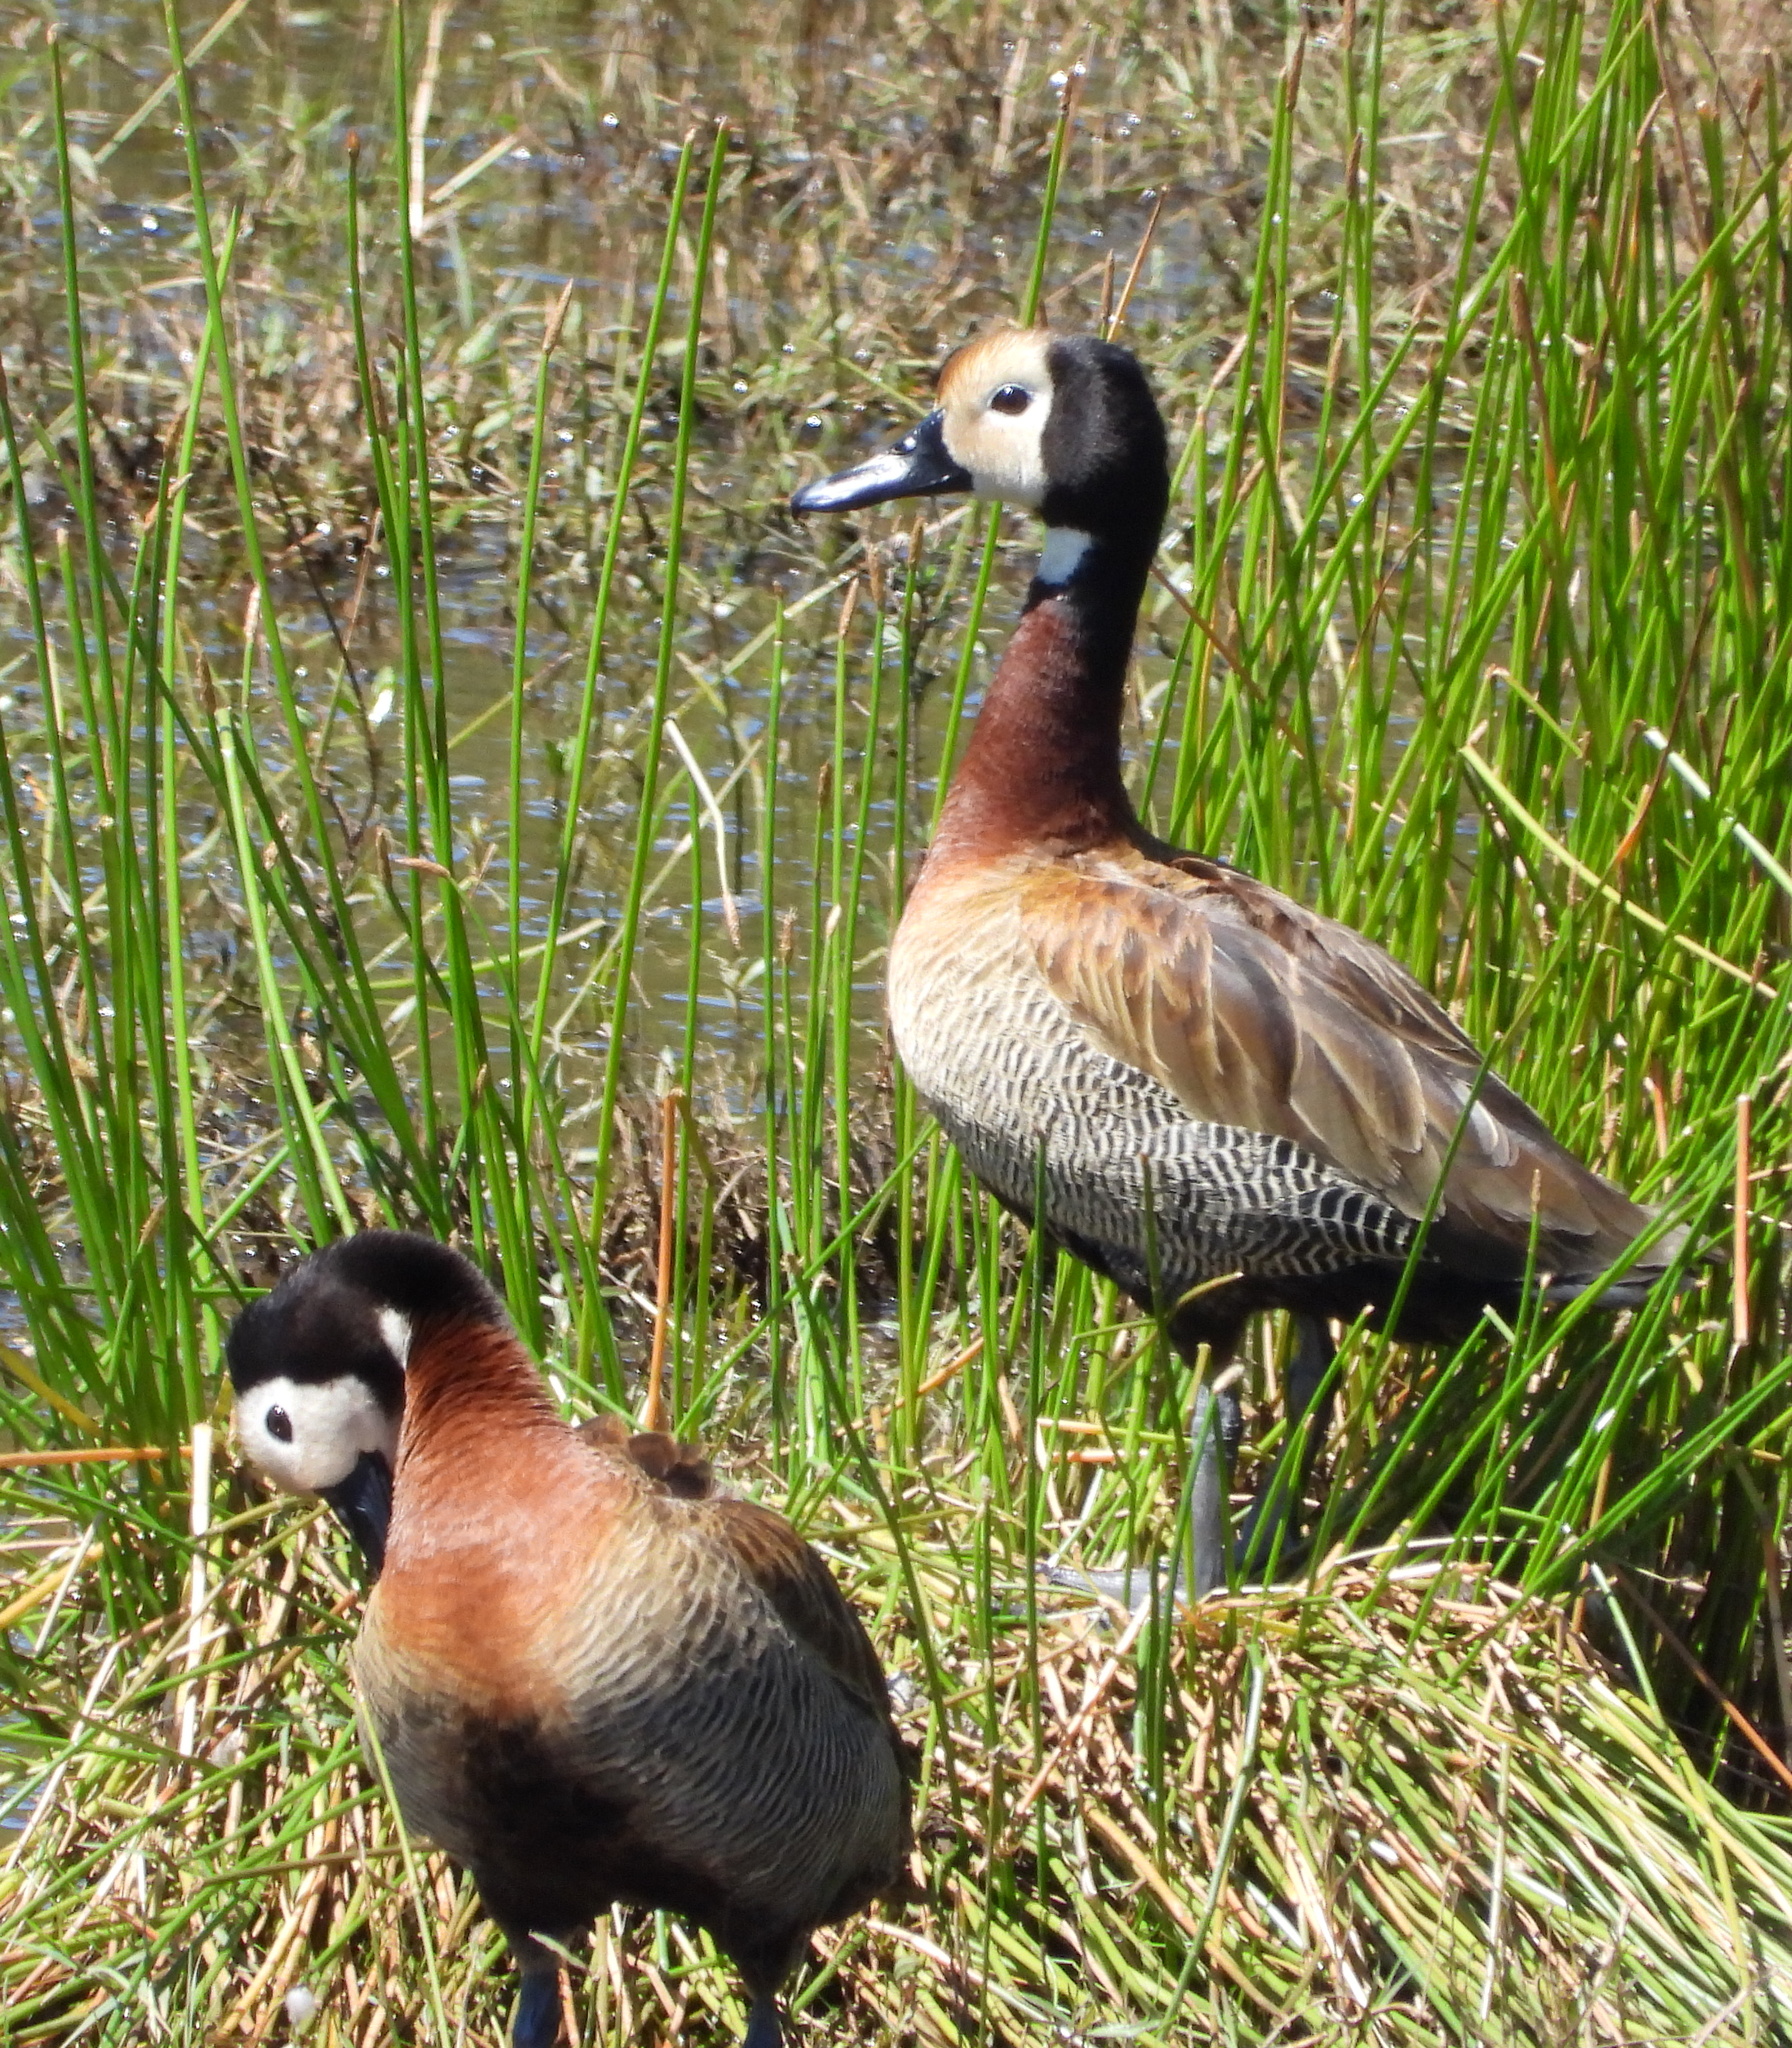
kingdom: Animalia
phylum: Chordata
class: Aves
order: Anseriformes
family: Anatidae
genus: Dendrocygna
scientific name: Dendrocygna viduata
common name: White-faced whistling duck
